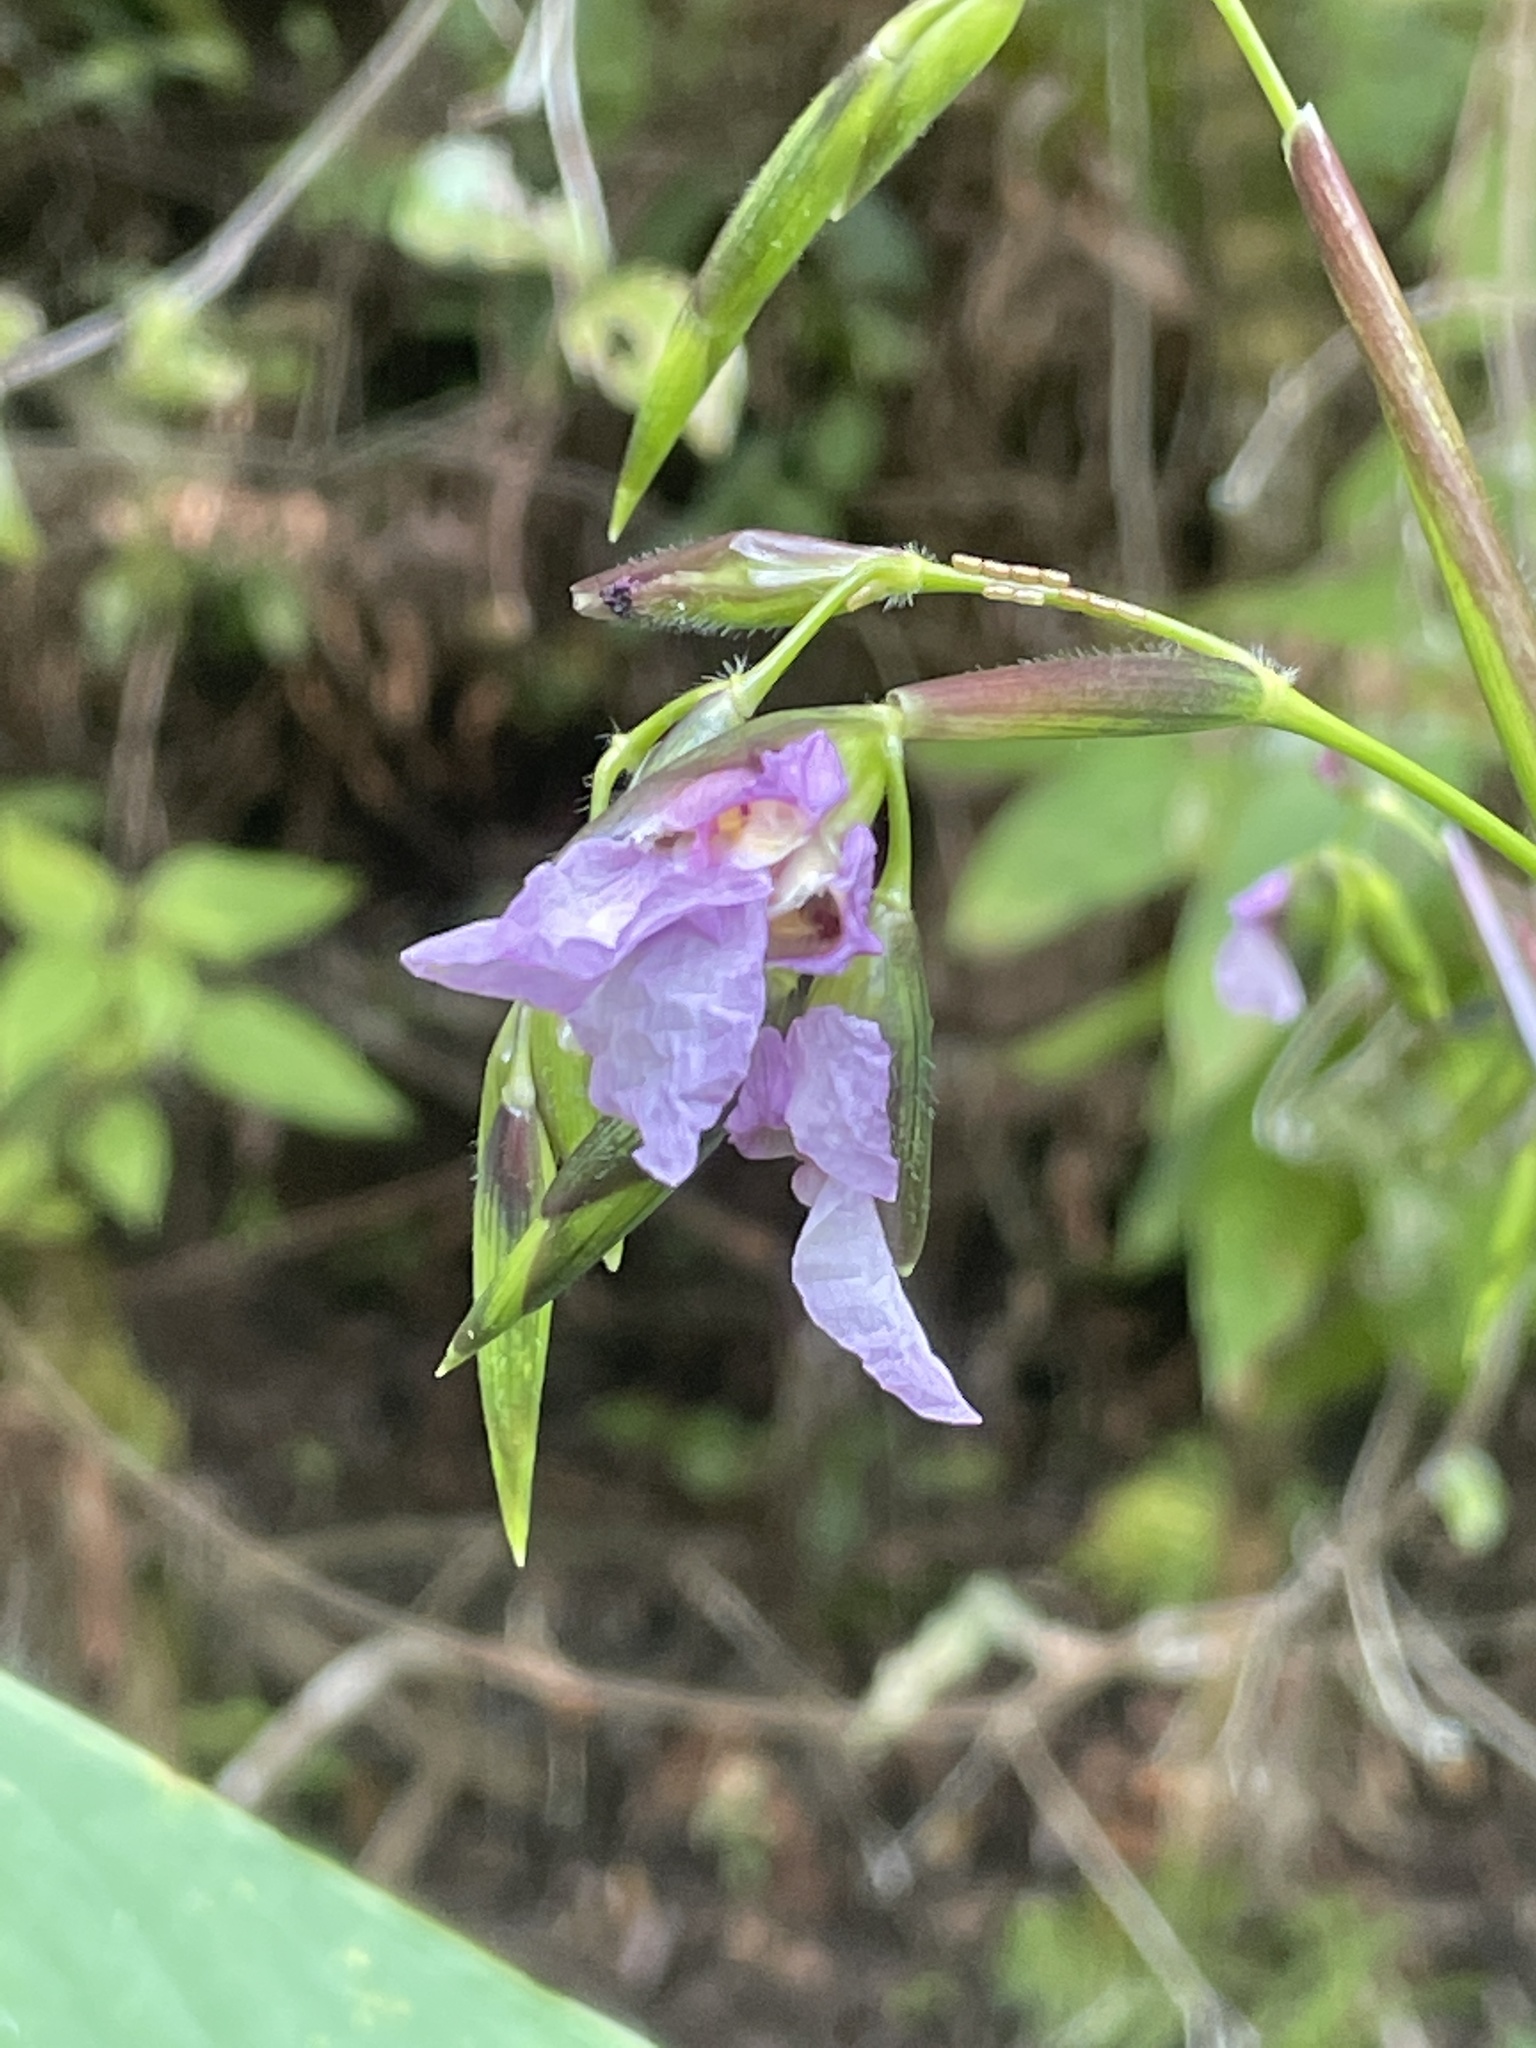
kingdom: Plantae
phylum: Tracheophyta
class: Liliopsida
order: Zingiberales
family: Marantaceae
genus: Thalia
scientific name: Thalia geniculata
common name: Arrowroot
